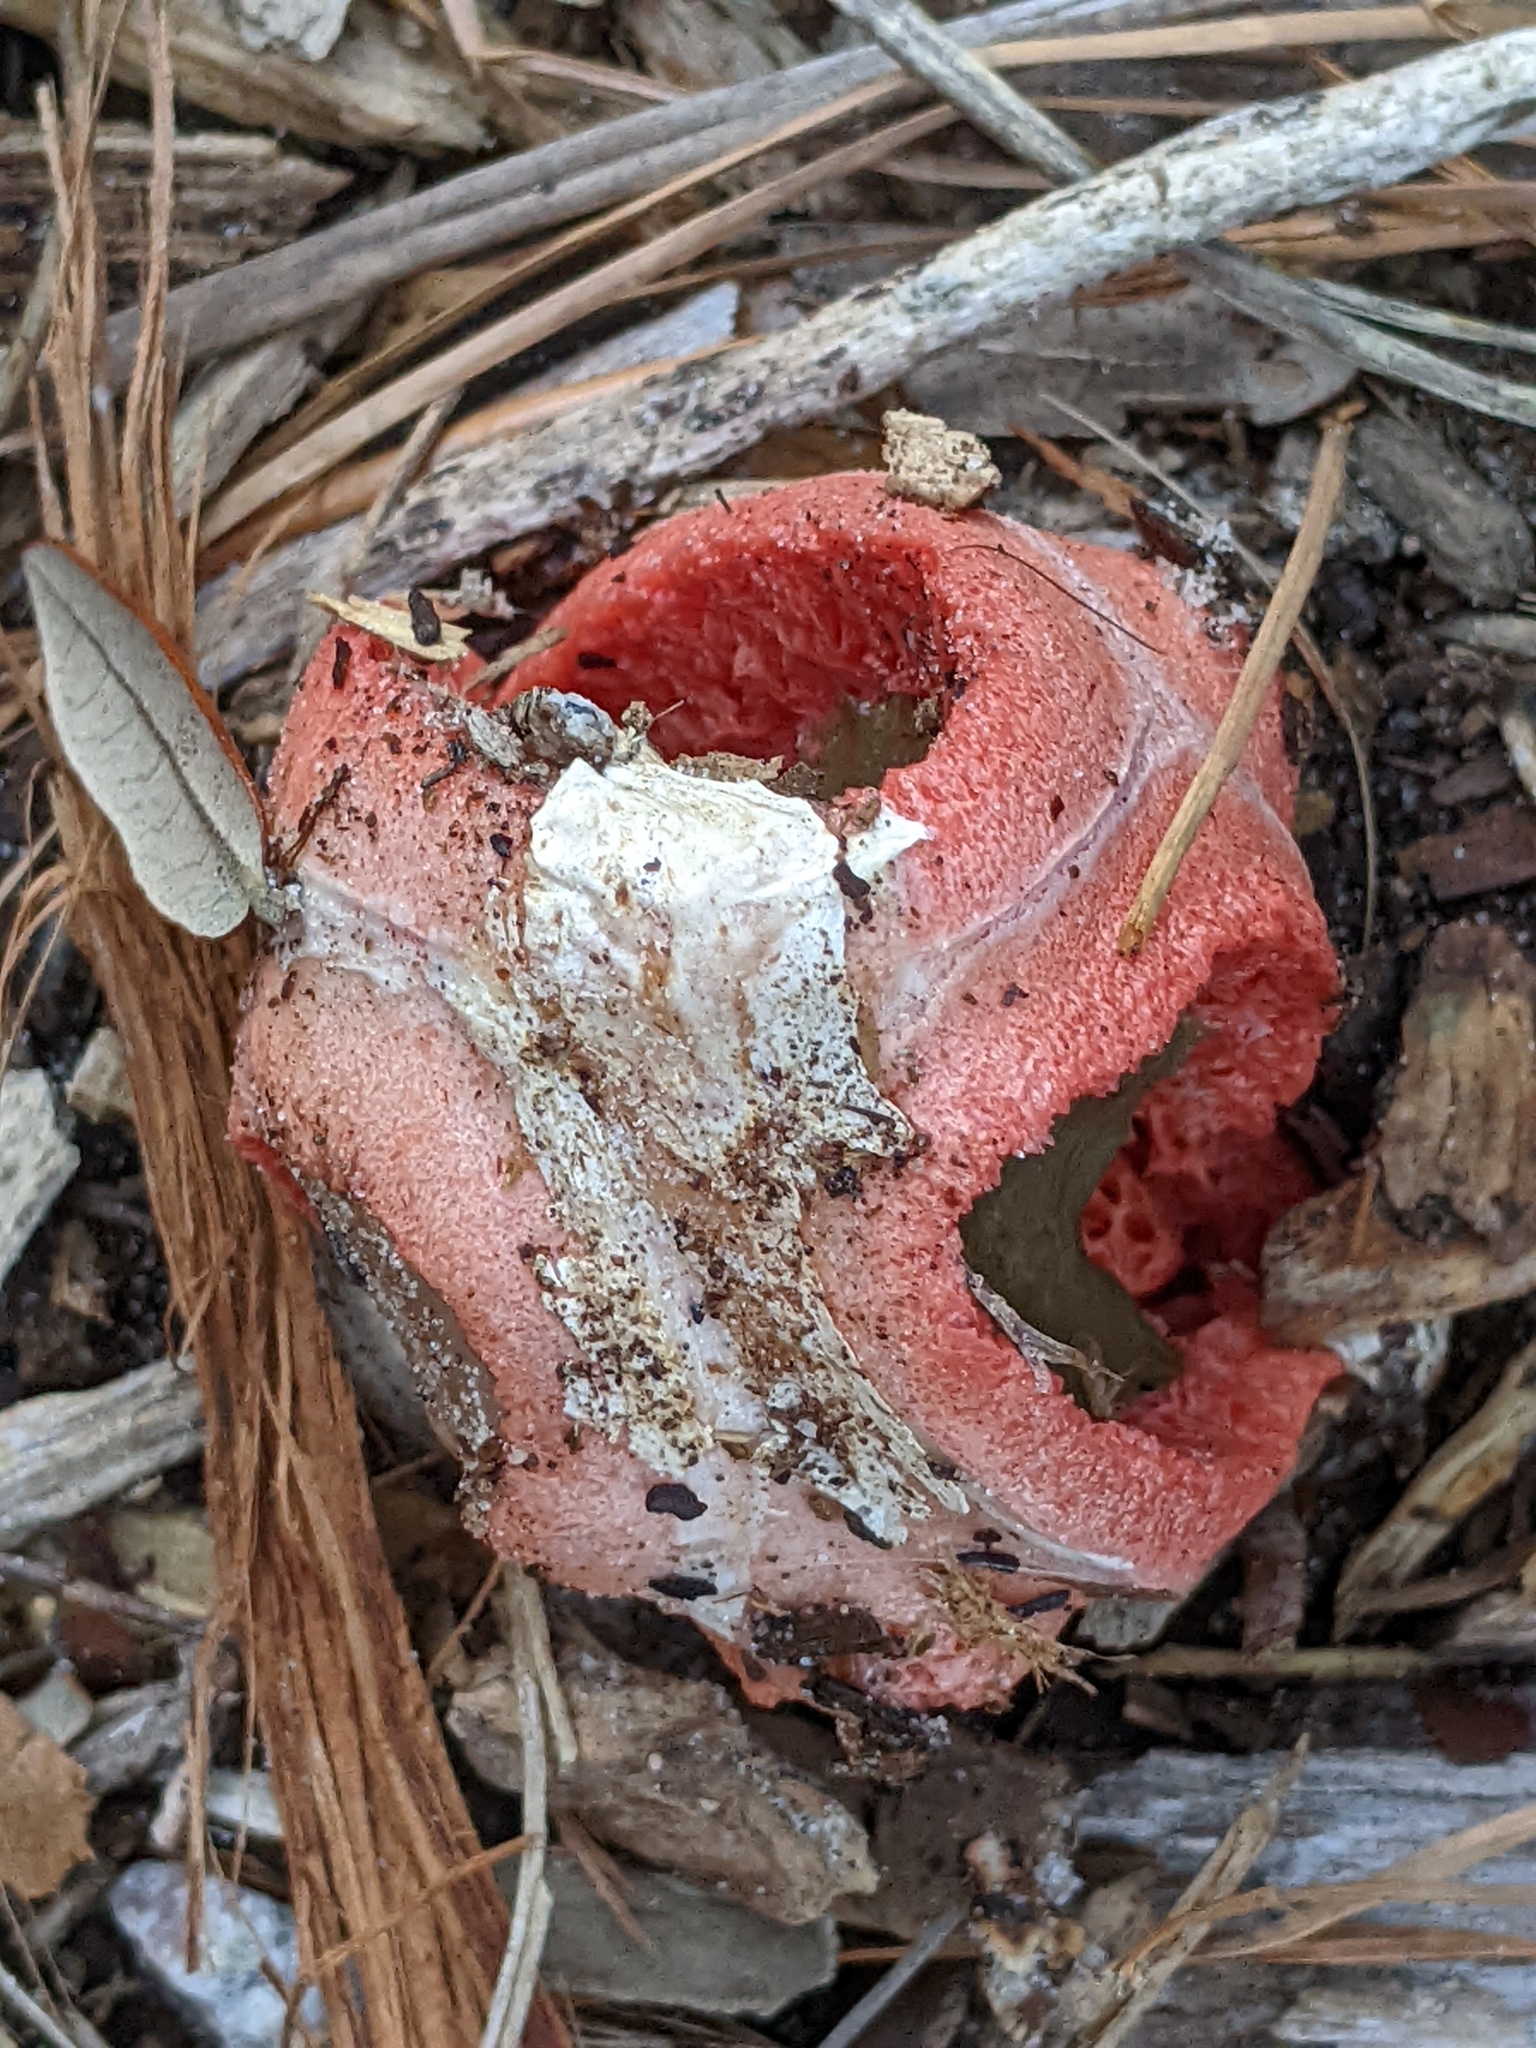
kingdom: Fungi
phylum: Basidiomycota
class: Agaricomycetes
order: Phallales
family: Phallaceae
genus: Clathrus
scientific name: Clathrus columnatus
